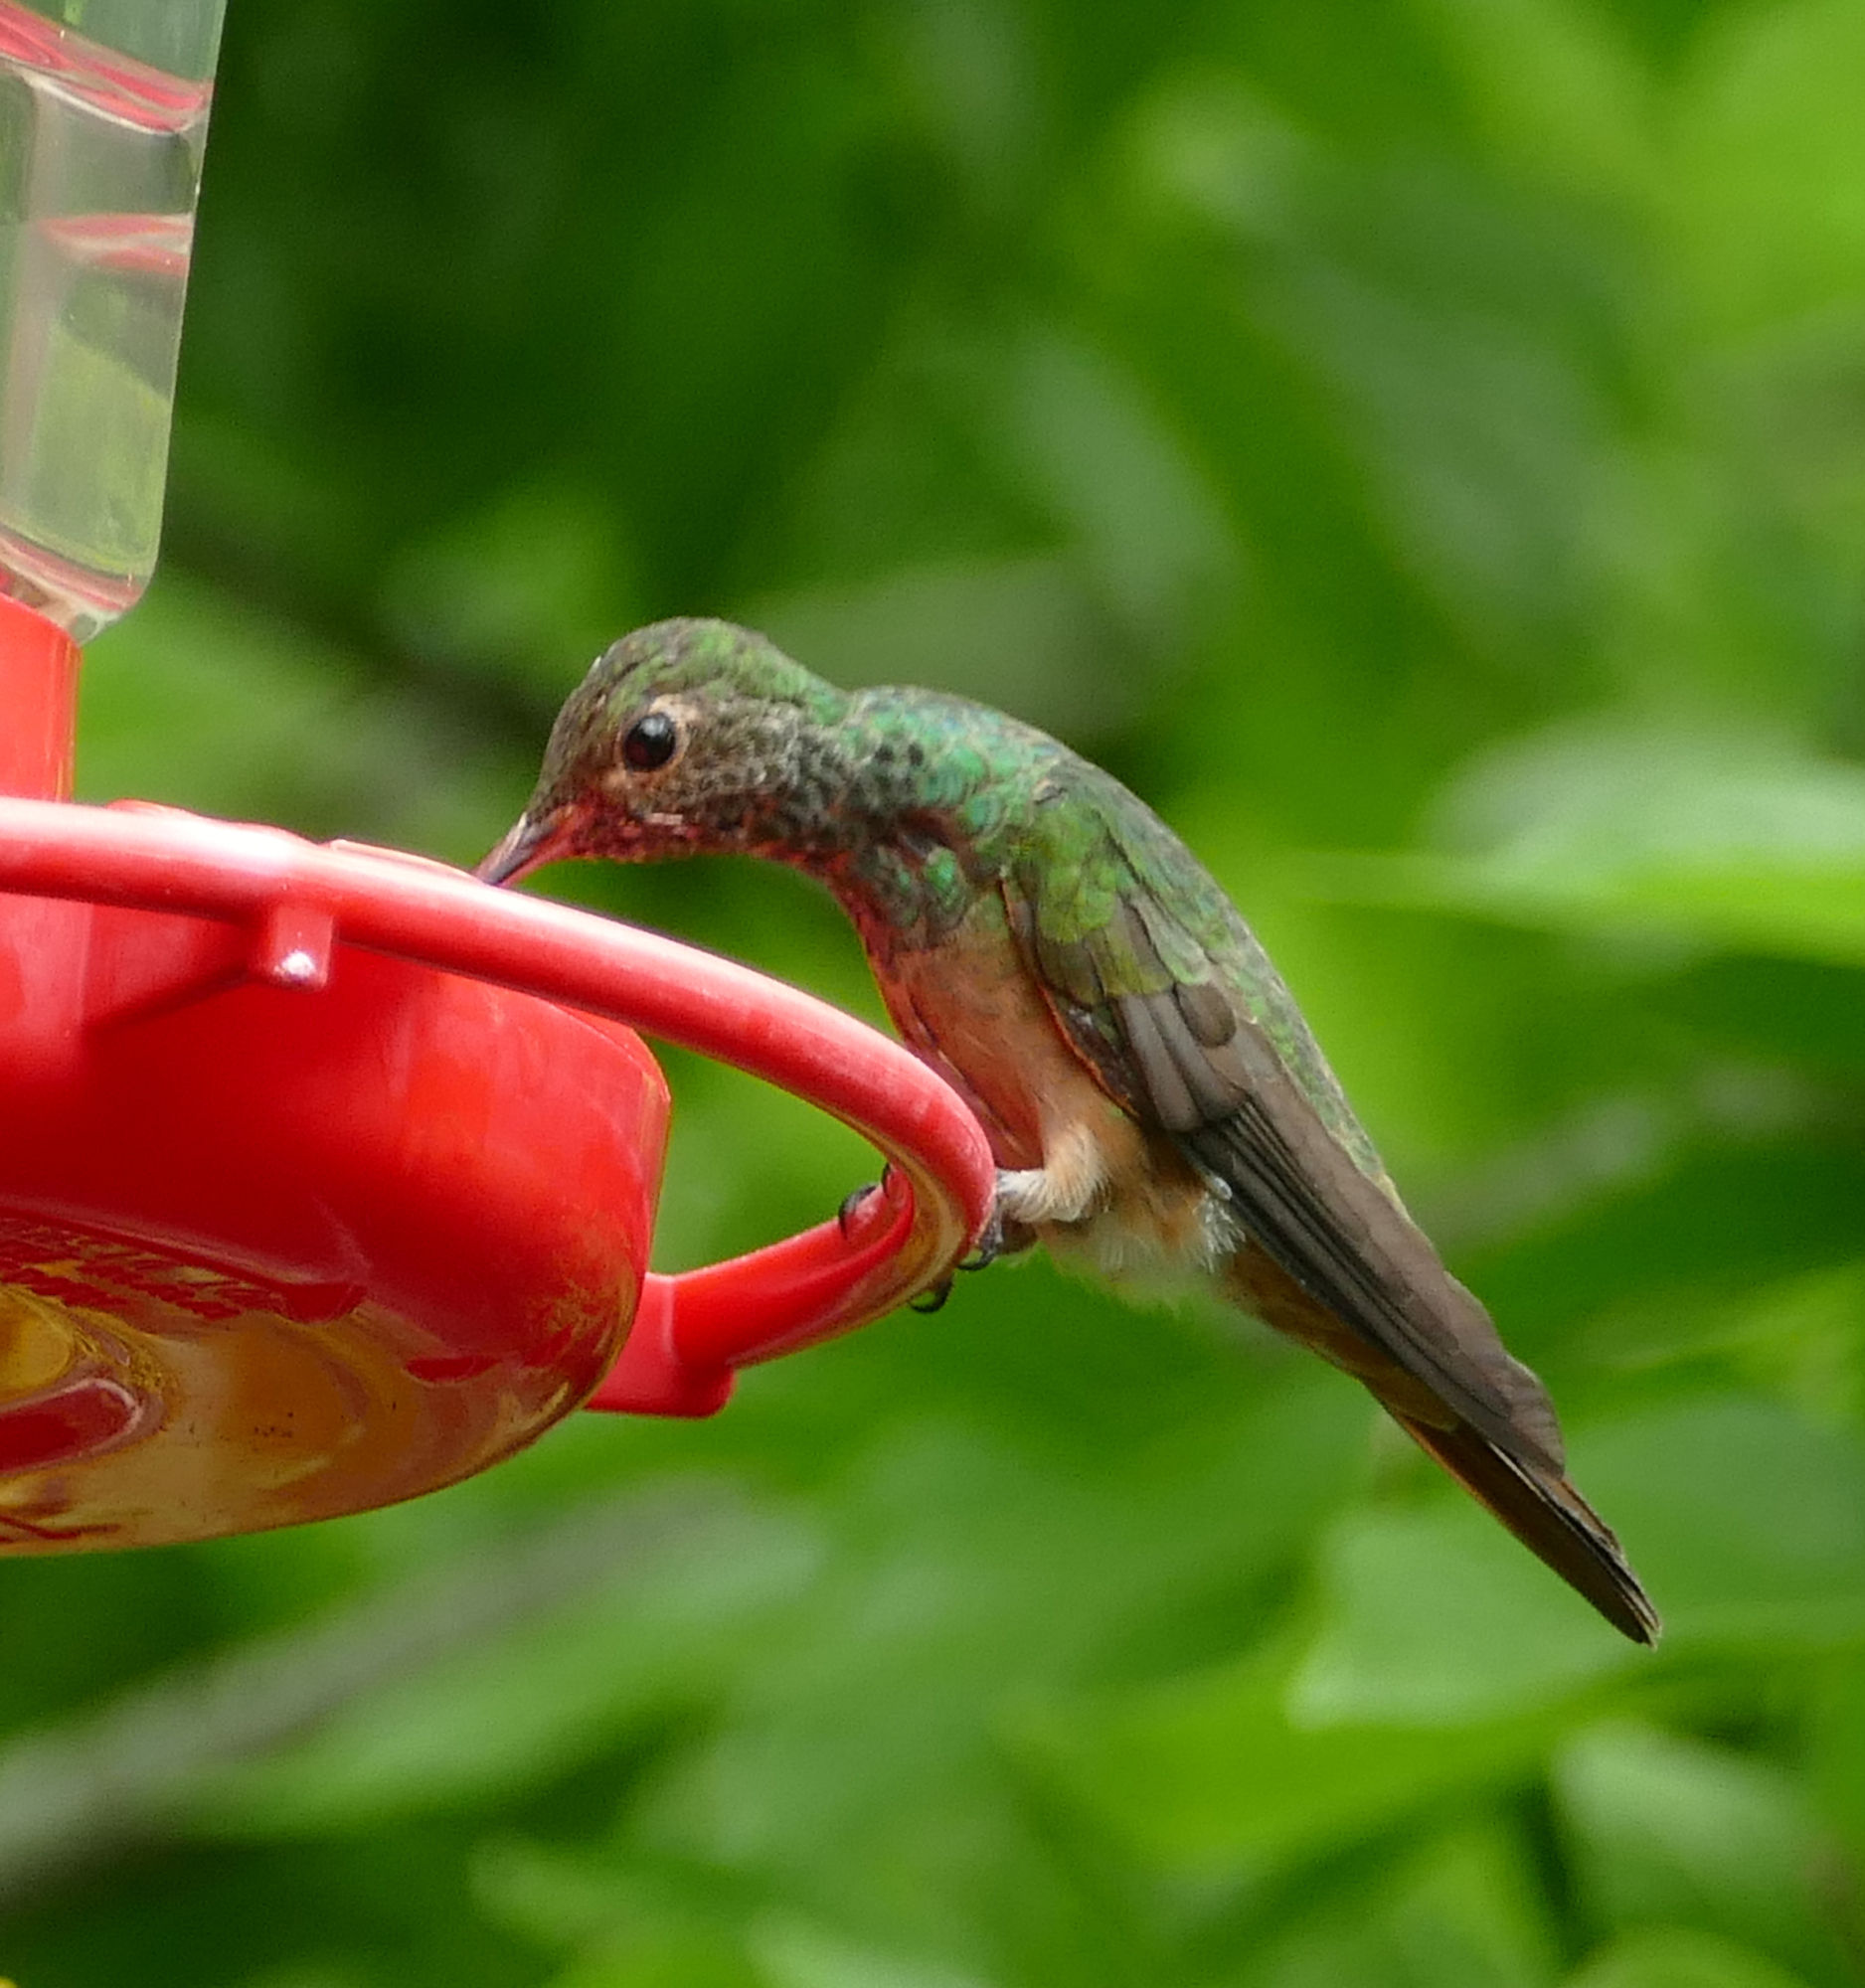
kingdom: Animalia
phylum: Chordata
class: Aves
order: Apodiformes
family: Trochilidae
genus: Amazilia
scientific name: Amazilia yucatanensis
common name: Buff-bellied hummingbird
